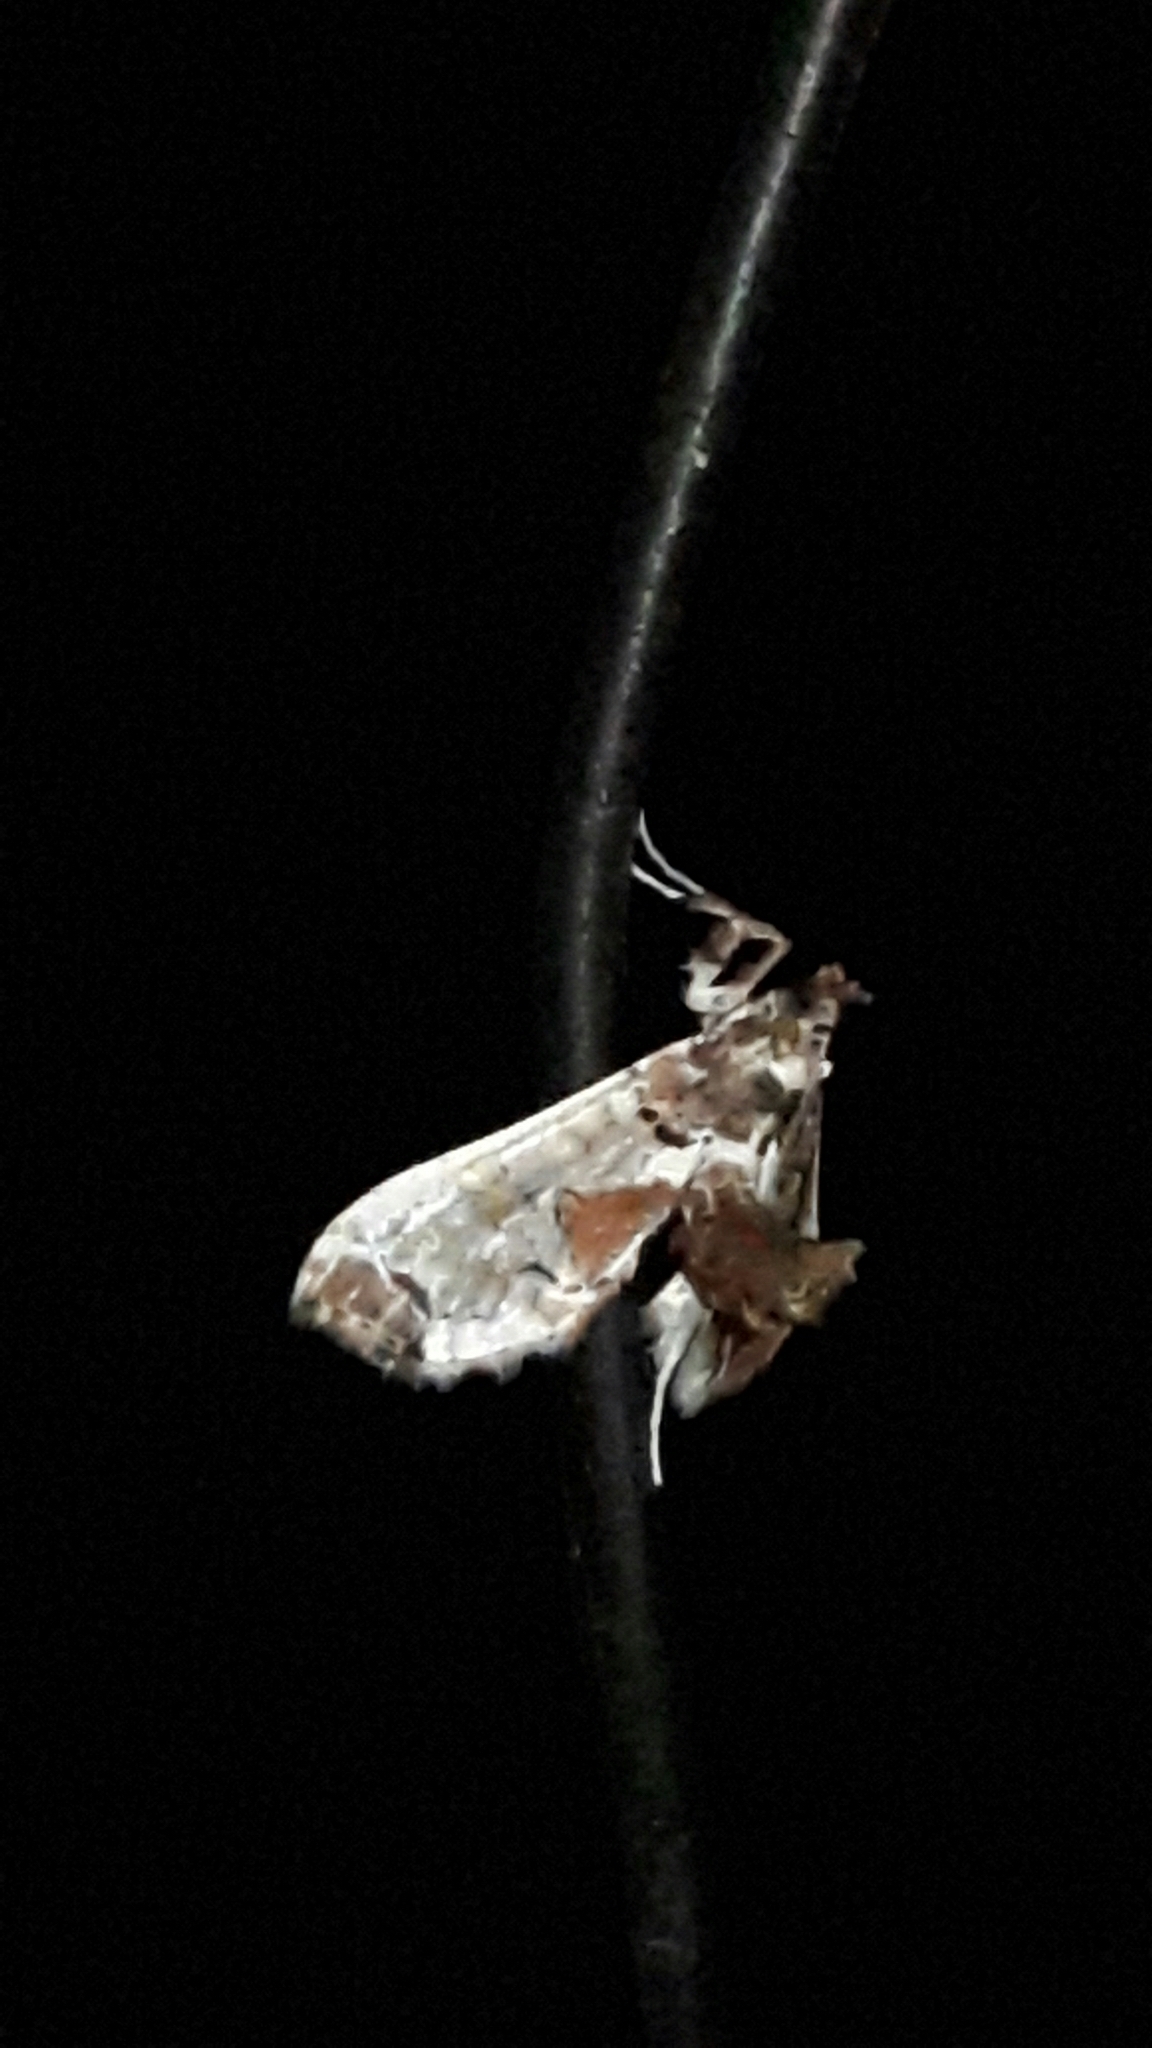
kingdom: Animalia
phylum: Arthropoda
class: Insecta
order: Lepidoptera
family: Crambidae
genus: Neoleucinodes
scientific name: Neoleucinodes elegantalis
